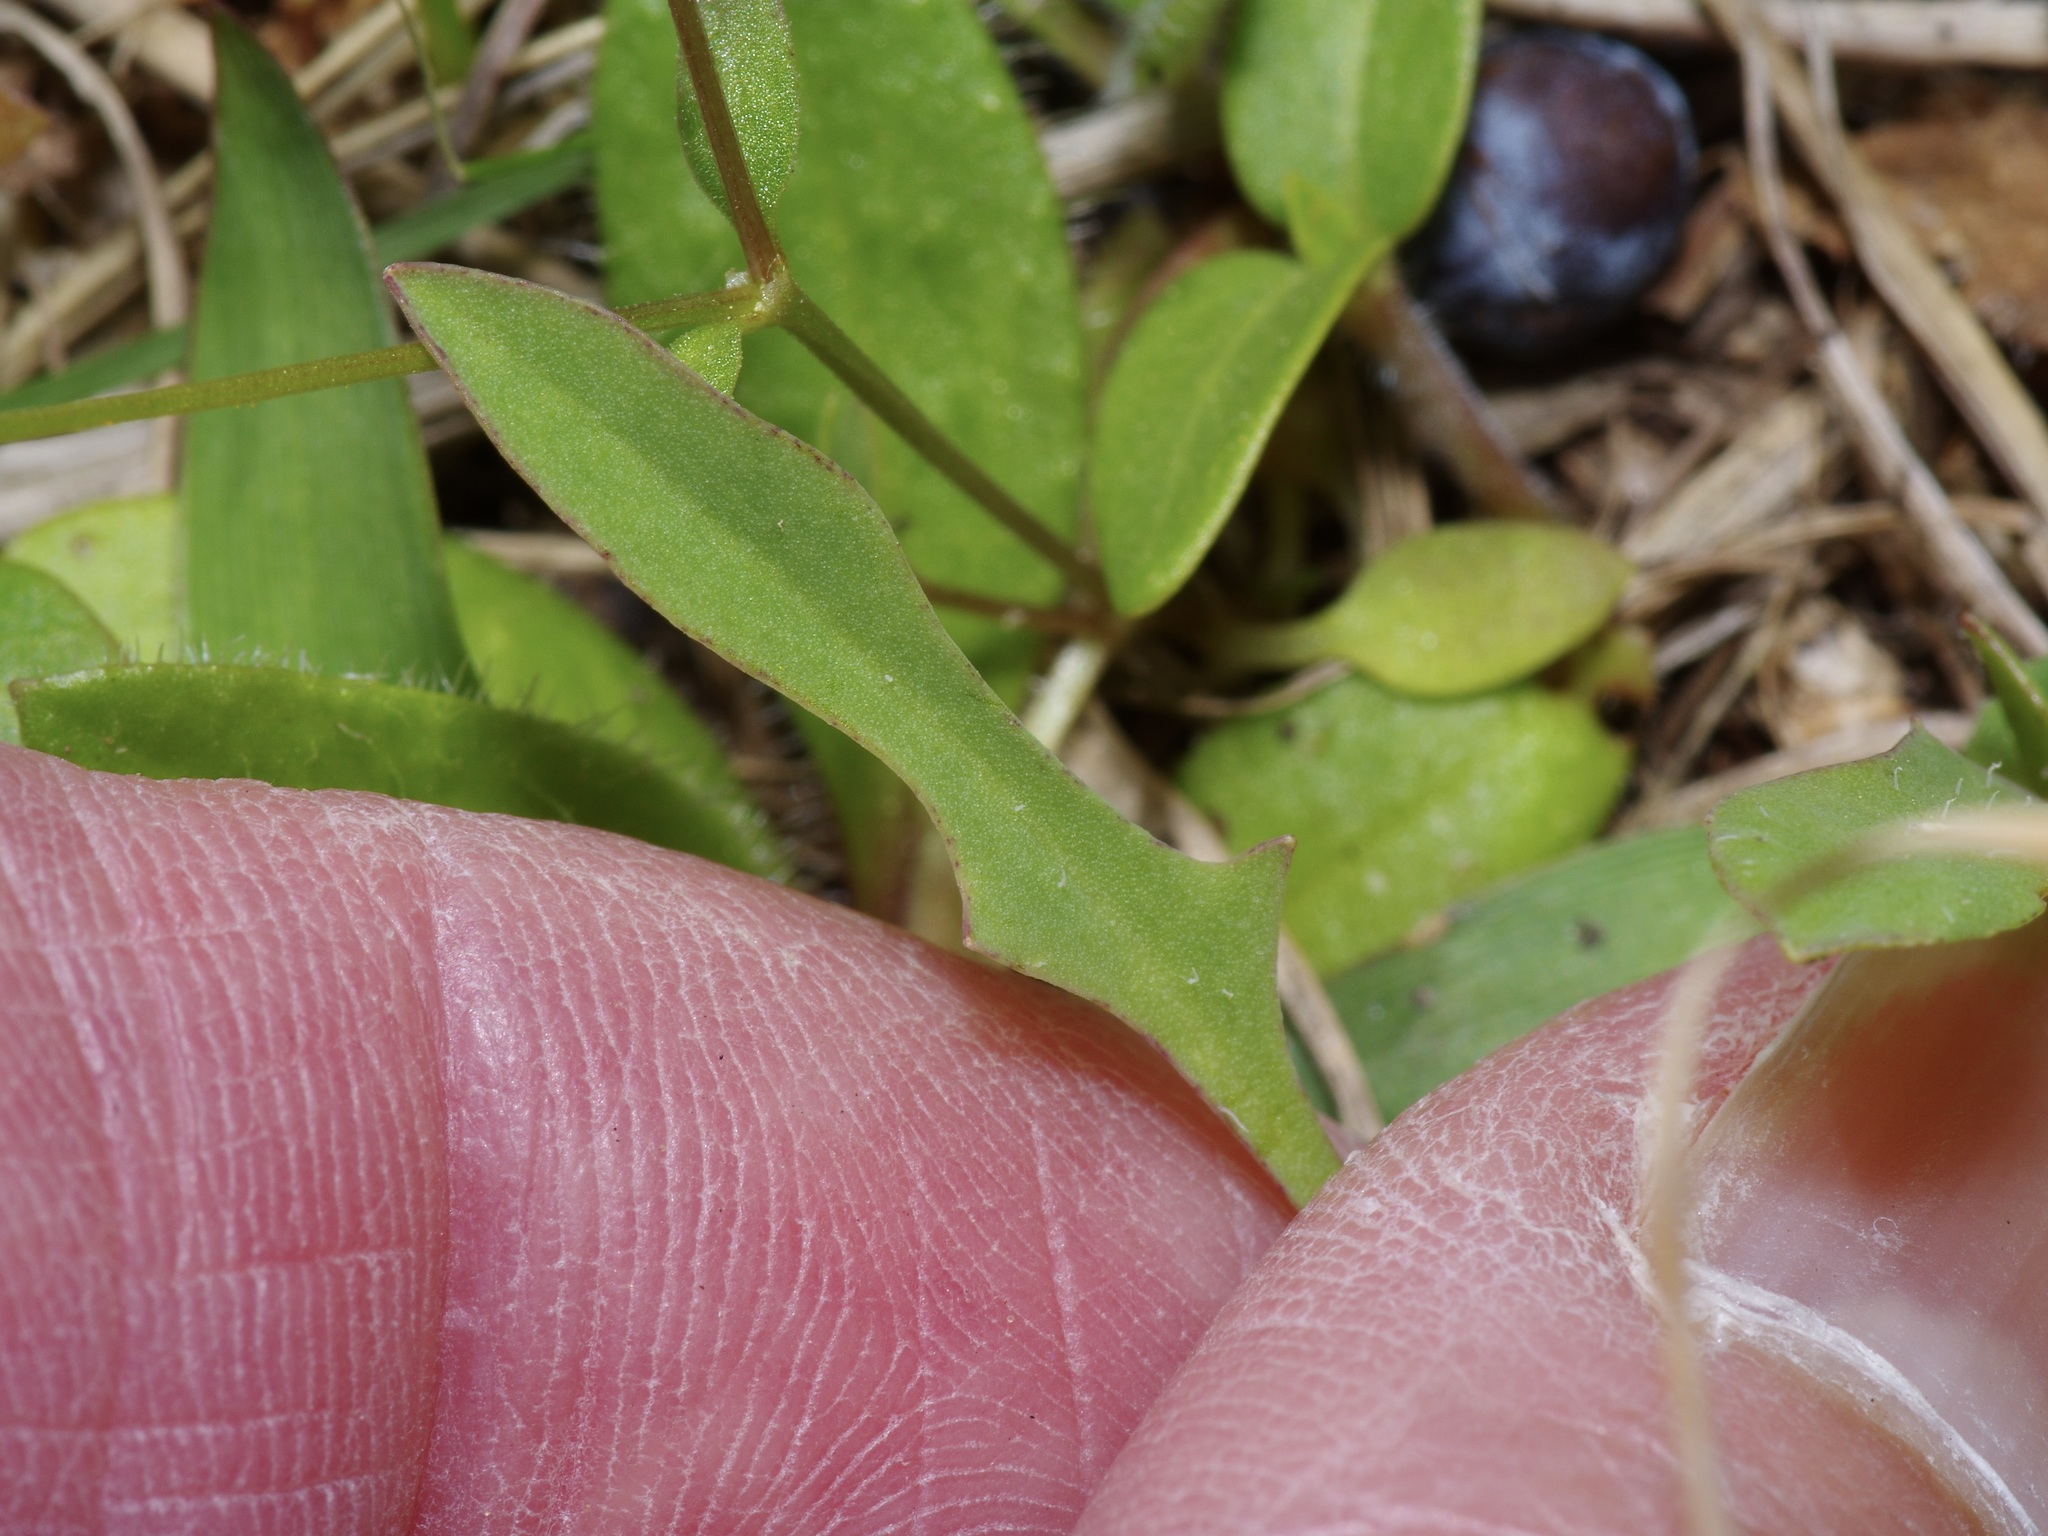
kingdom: Plantae
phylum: Tracheophyta
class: Magnoliopsida
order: Asterales
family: Asteraceae
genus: Krigia
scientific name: Krigia occidentalis
